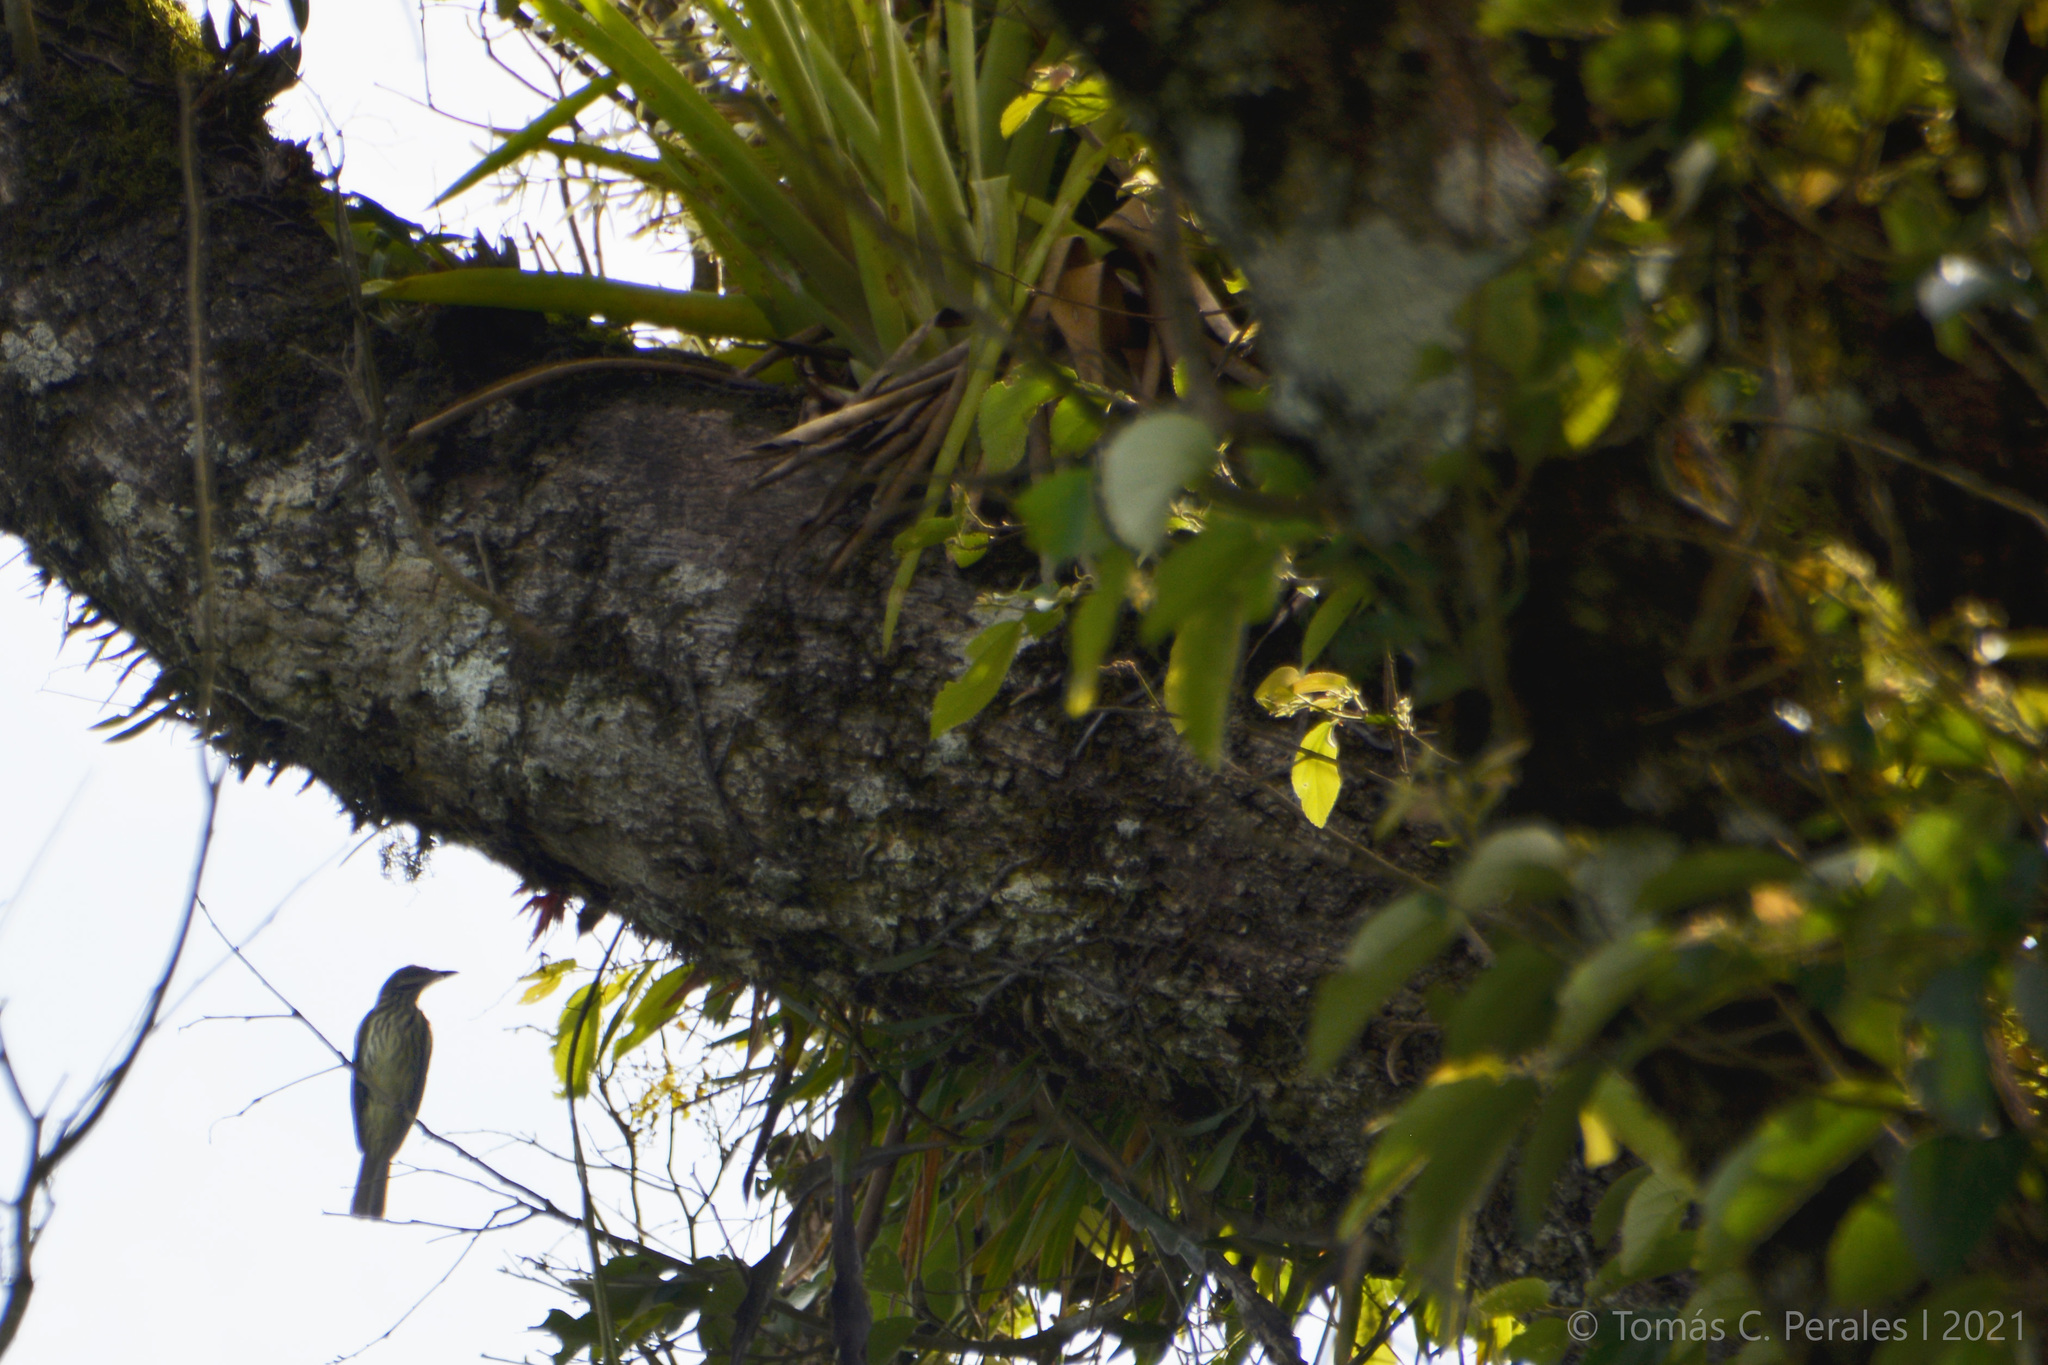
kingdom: Animalia
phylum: Chordata
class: Aves
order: Passeriformes
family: Tyrannidae
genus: Myiodynastes
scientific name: Myiodynastes maculatus
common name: Streaked flycatcher
